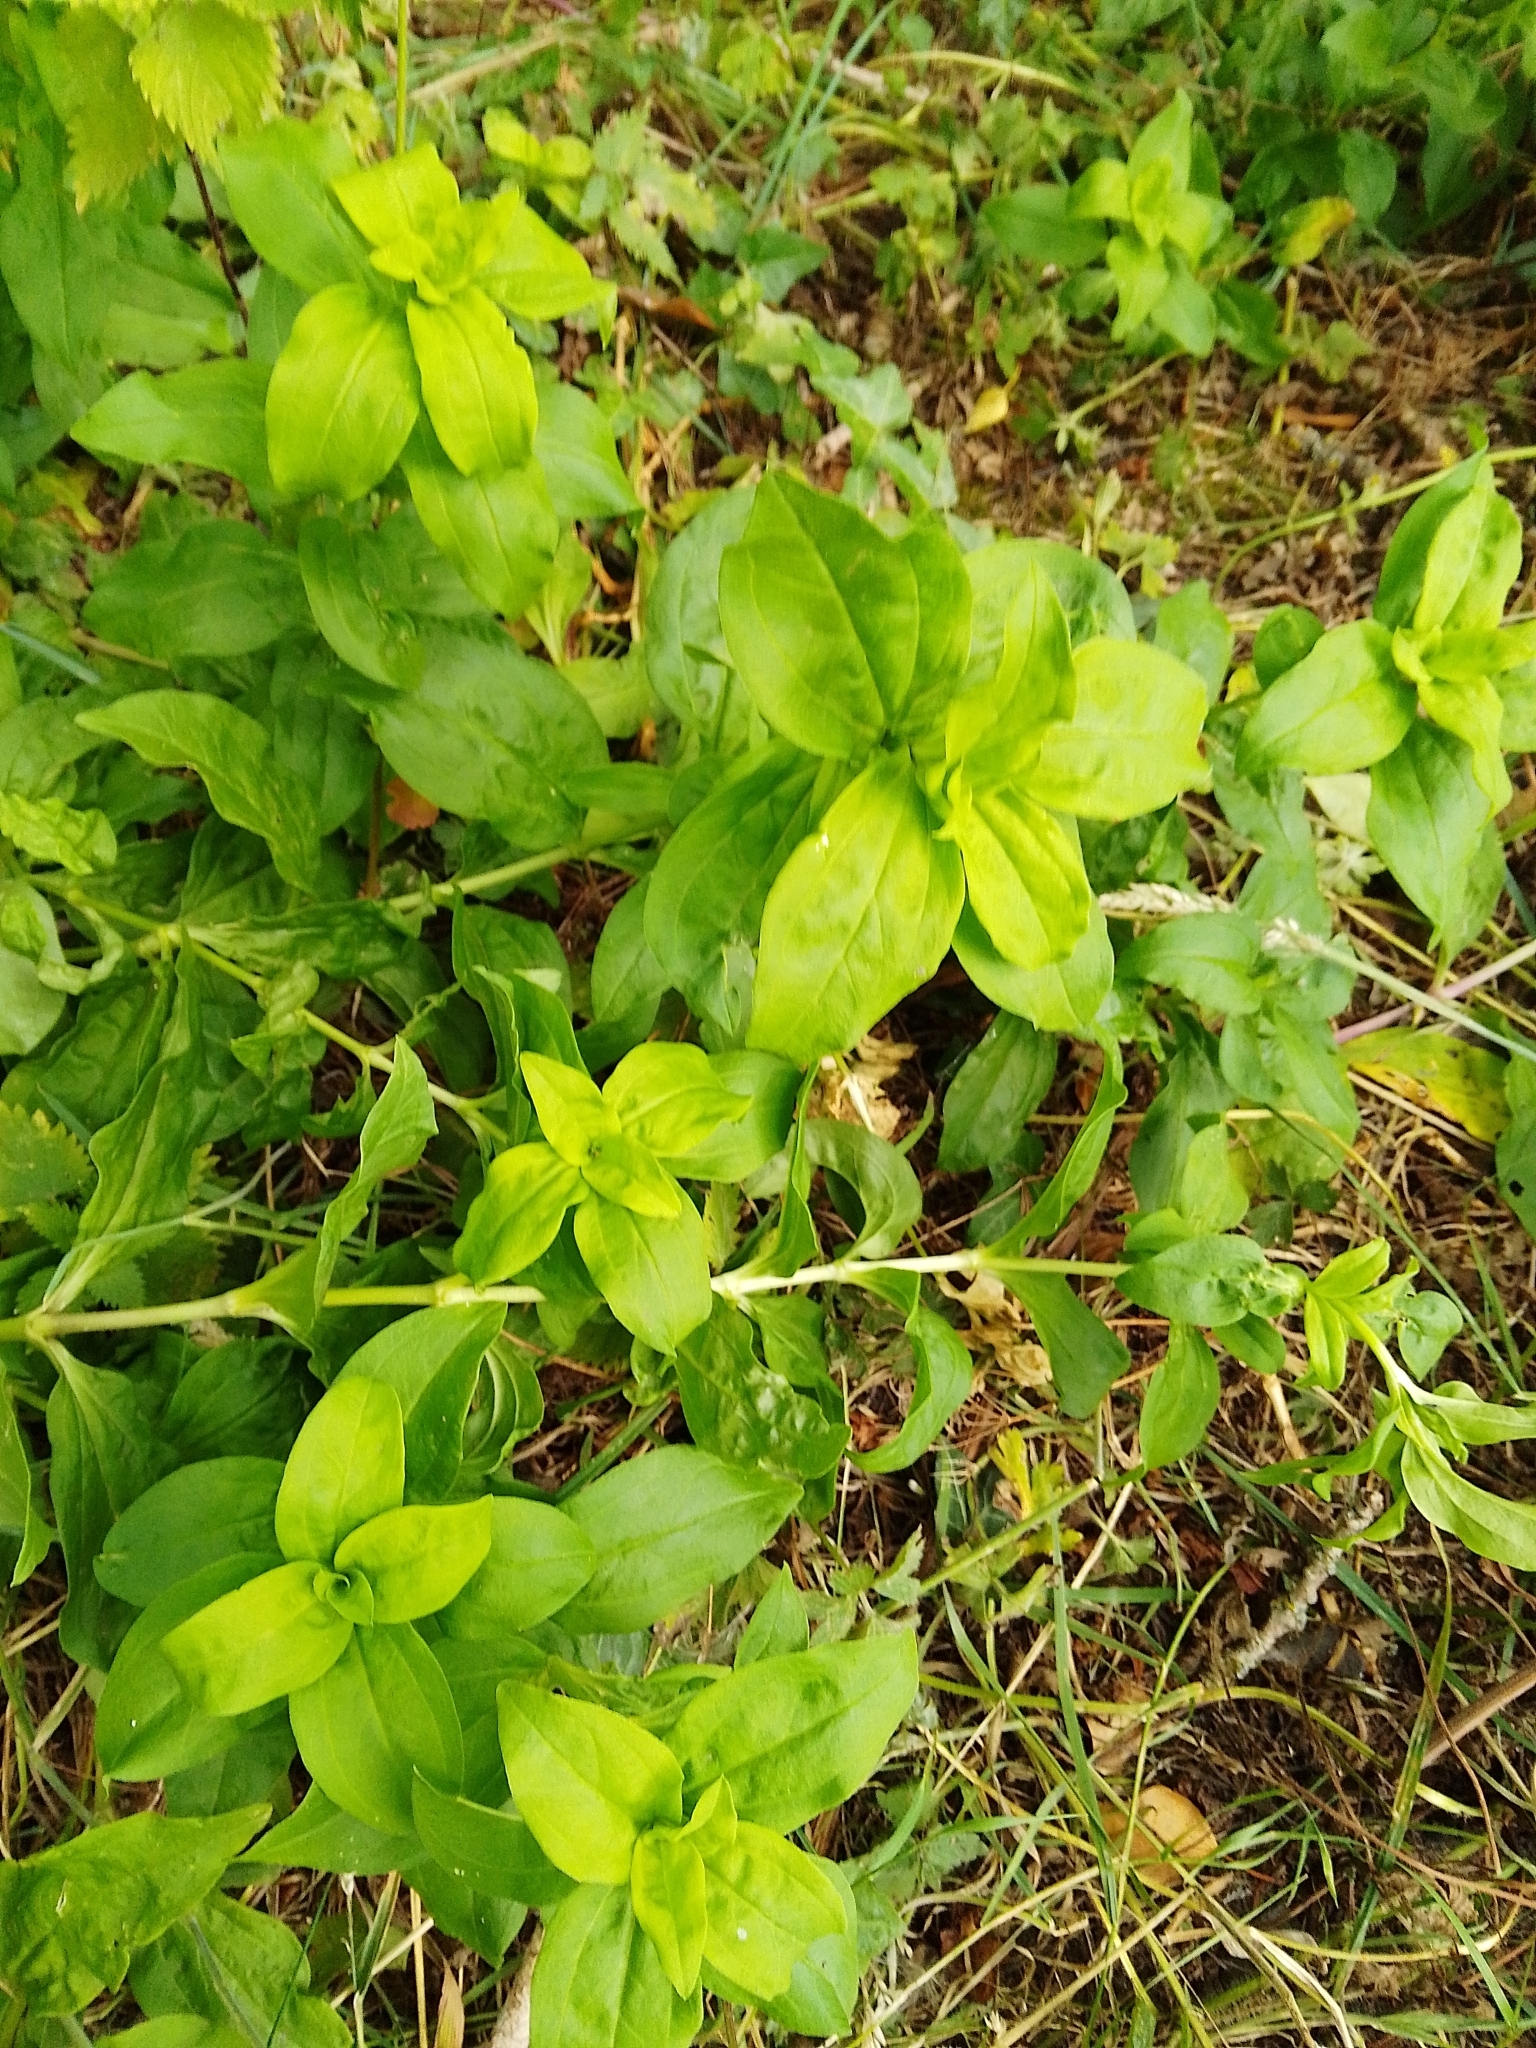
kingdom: Plantae
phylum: Tracheophyta
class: Magnoliopsida
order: Caryophyllales
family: Caryophyllaceae
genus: Saponaria
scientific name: Saponaria officinalis
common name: Soapwort
